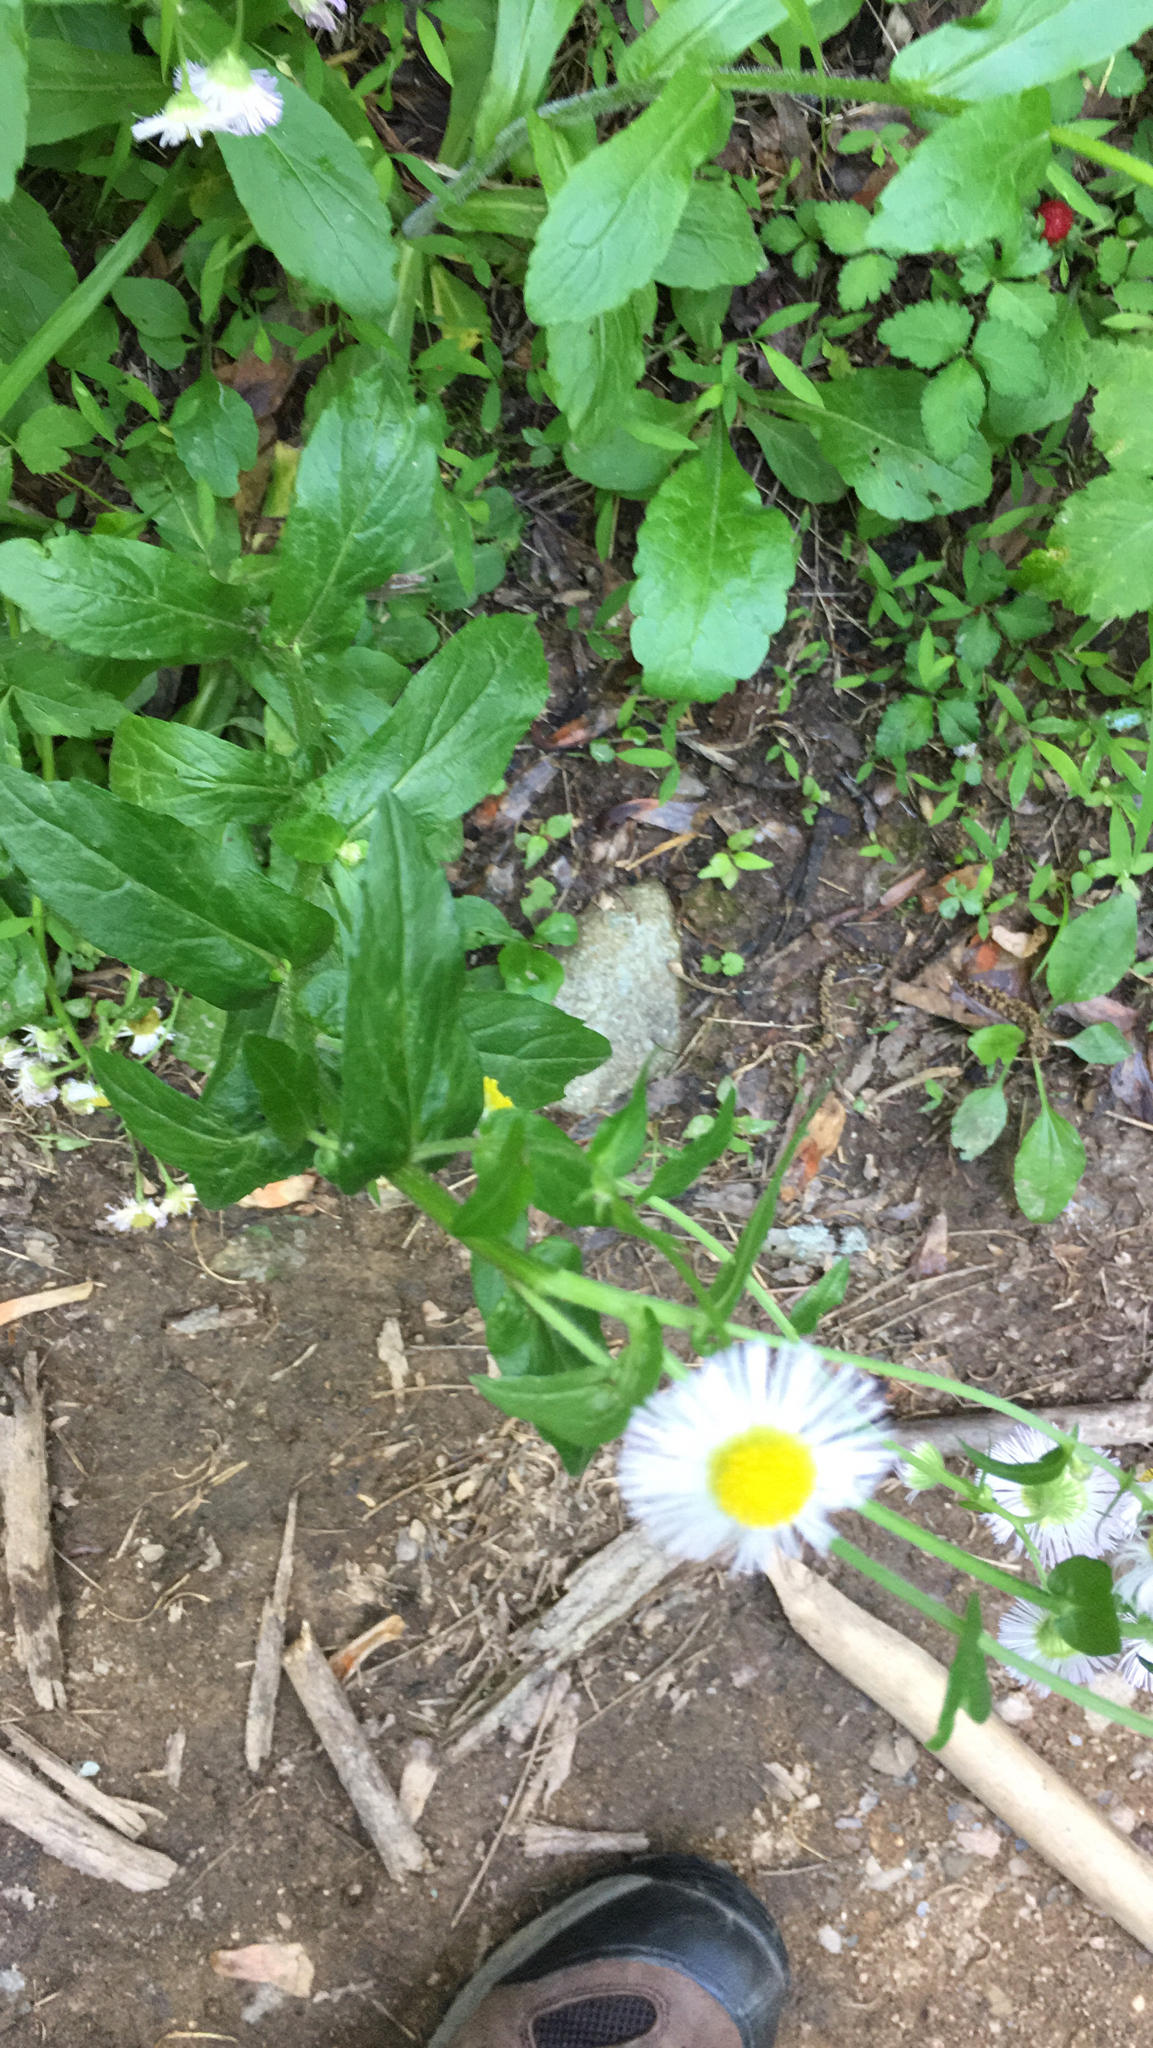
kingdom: Plantae
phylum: Tracheophyta
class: Magnoliopsida
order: Asterales
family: Asteraceae
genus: Erigeron
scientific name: Erigeron philadelphicus
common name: Robin's-plantain
